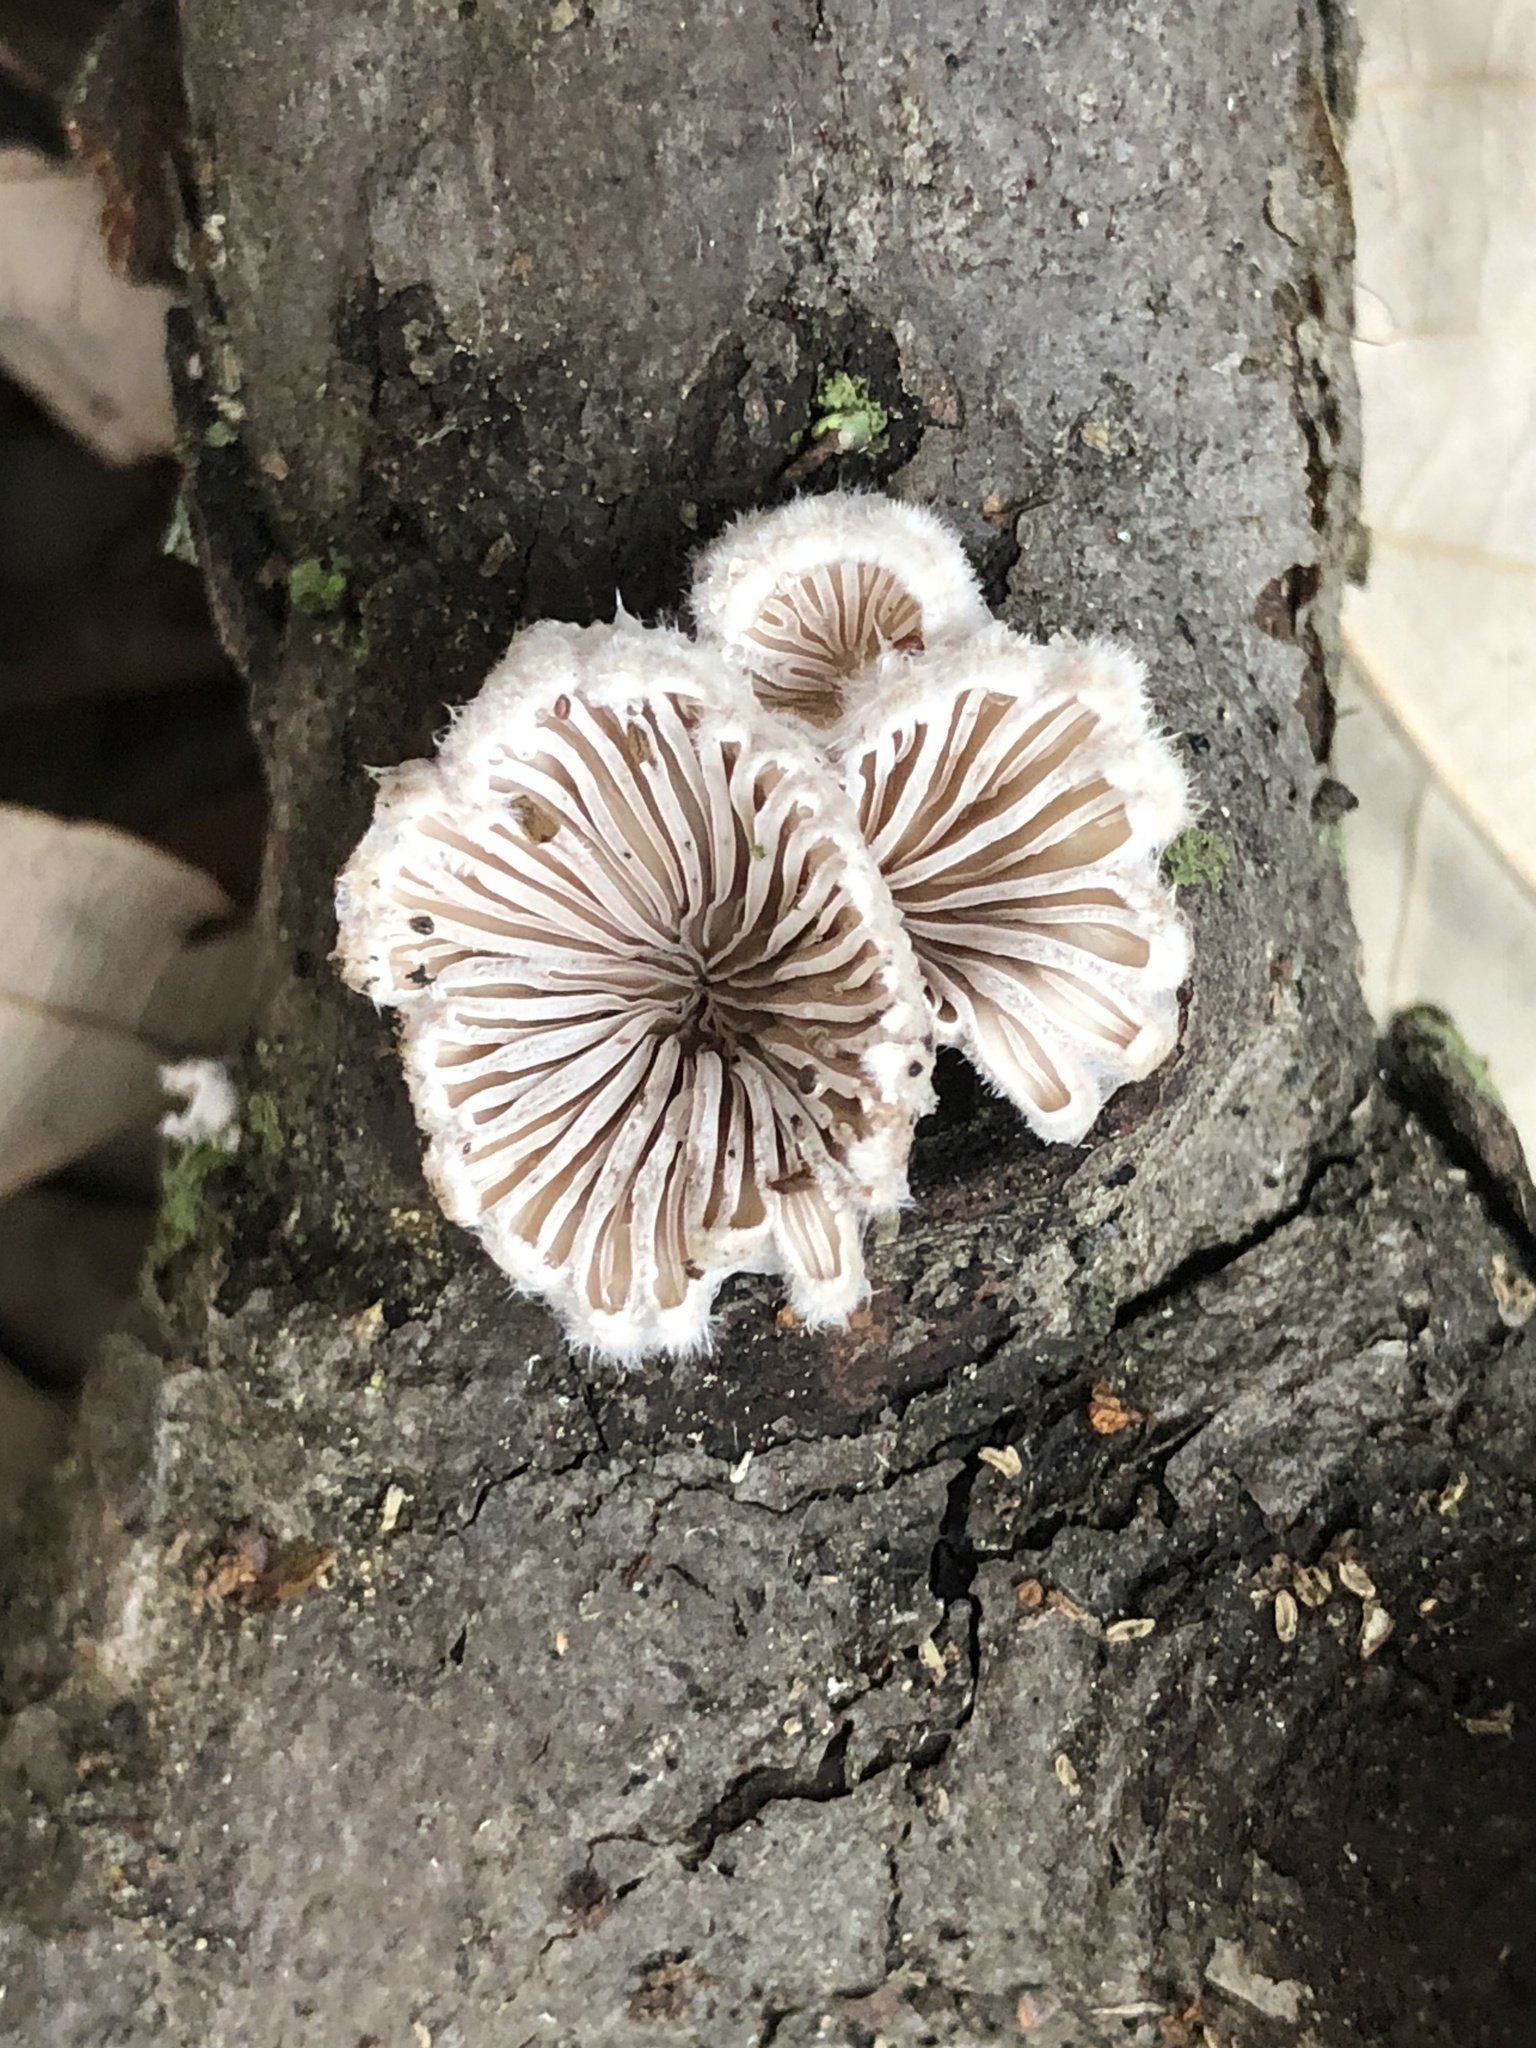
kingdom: Fungi
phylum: Basidiomycota
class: Agaricomycetes
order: Agaricales
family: Schizophyllaceae
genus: Schizophyllum
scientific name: Schizophyllum commune
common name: Common porecrust
